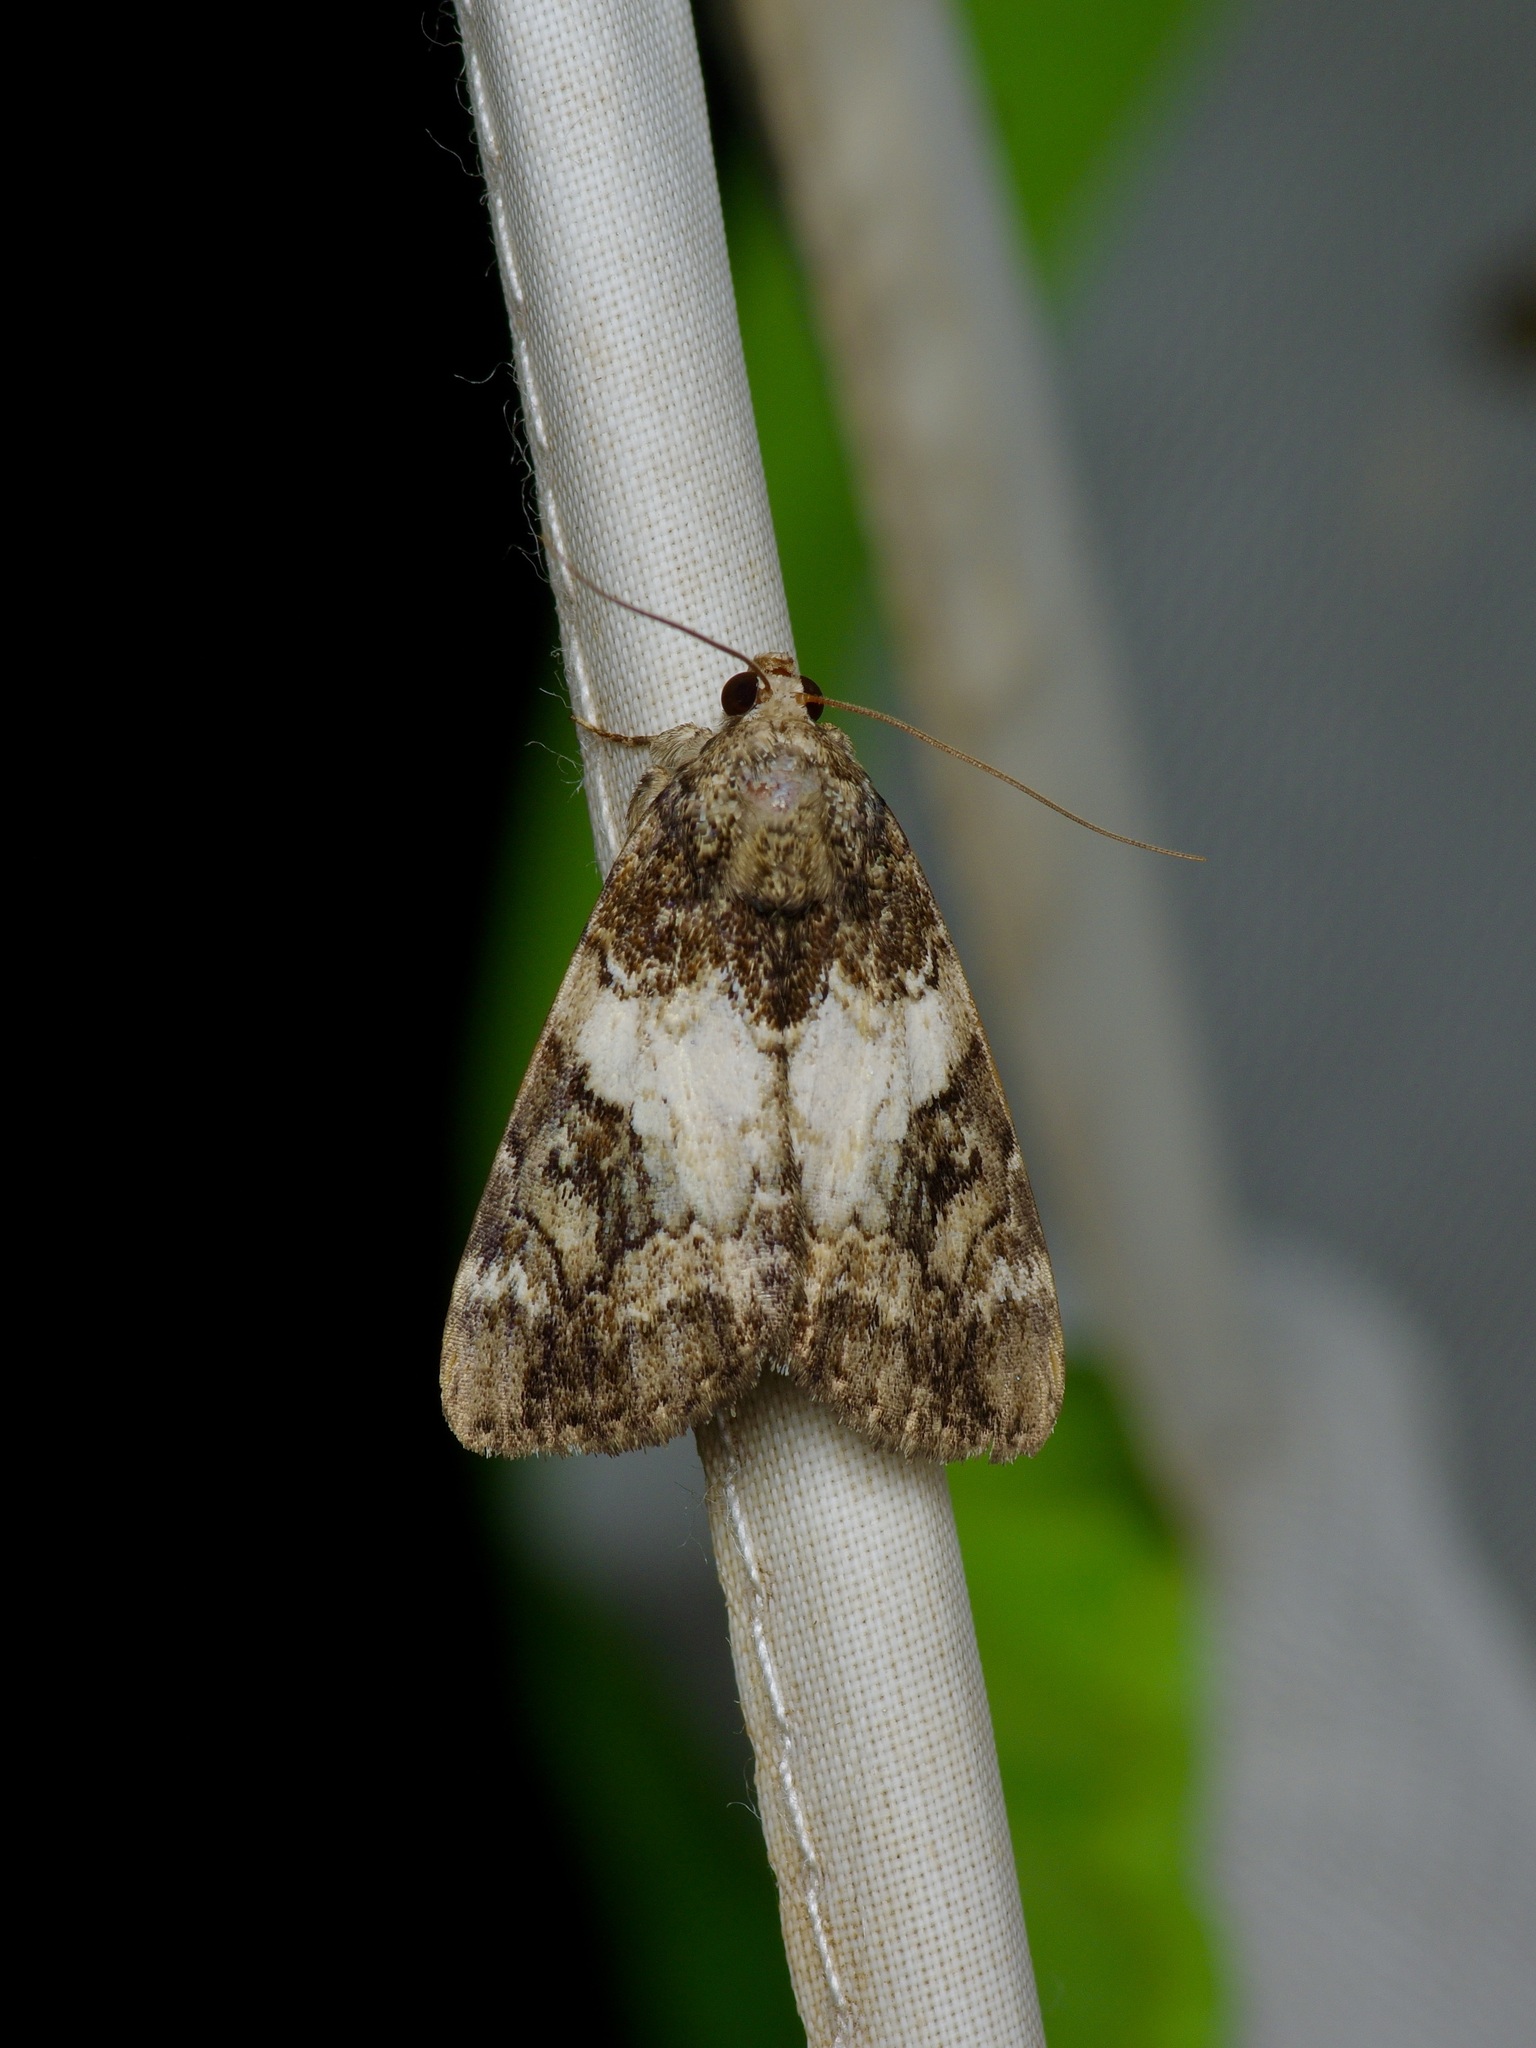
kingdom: Animalia
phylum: Arthropoda
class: Insecta
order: Lepidoptera
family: Erebidae
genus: Catocala
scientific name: Catocala micronympha
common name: Little nymph underwing
